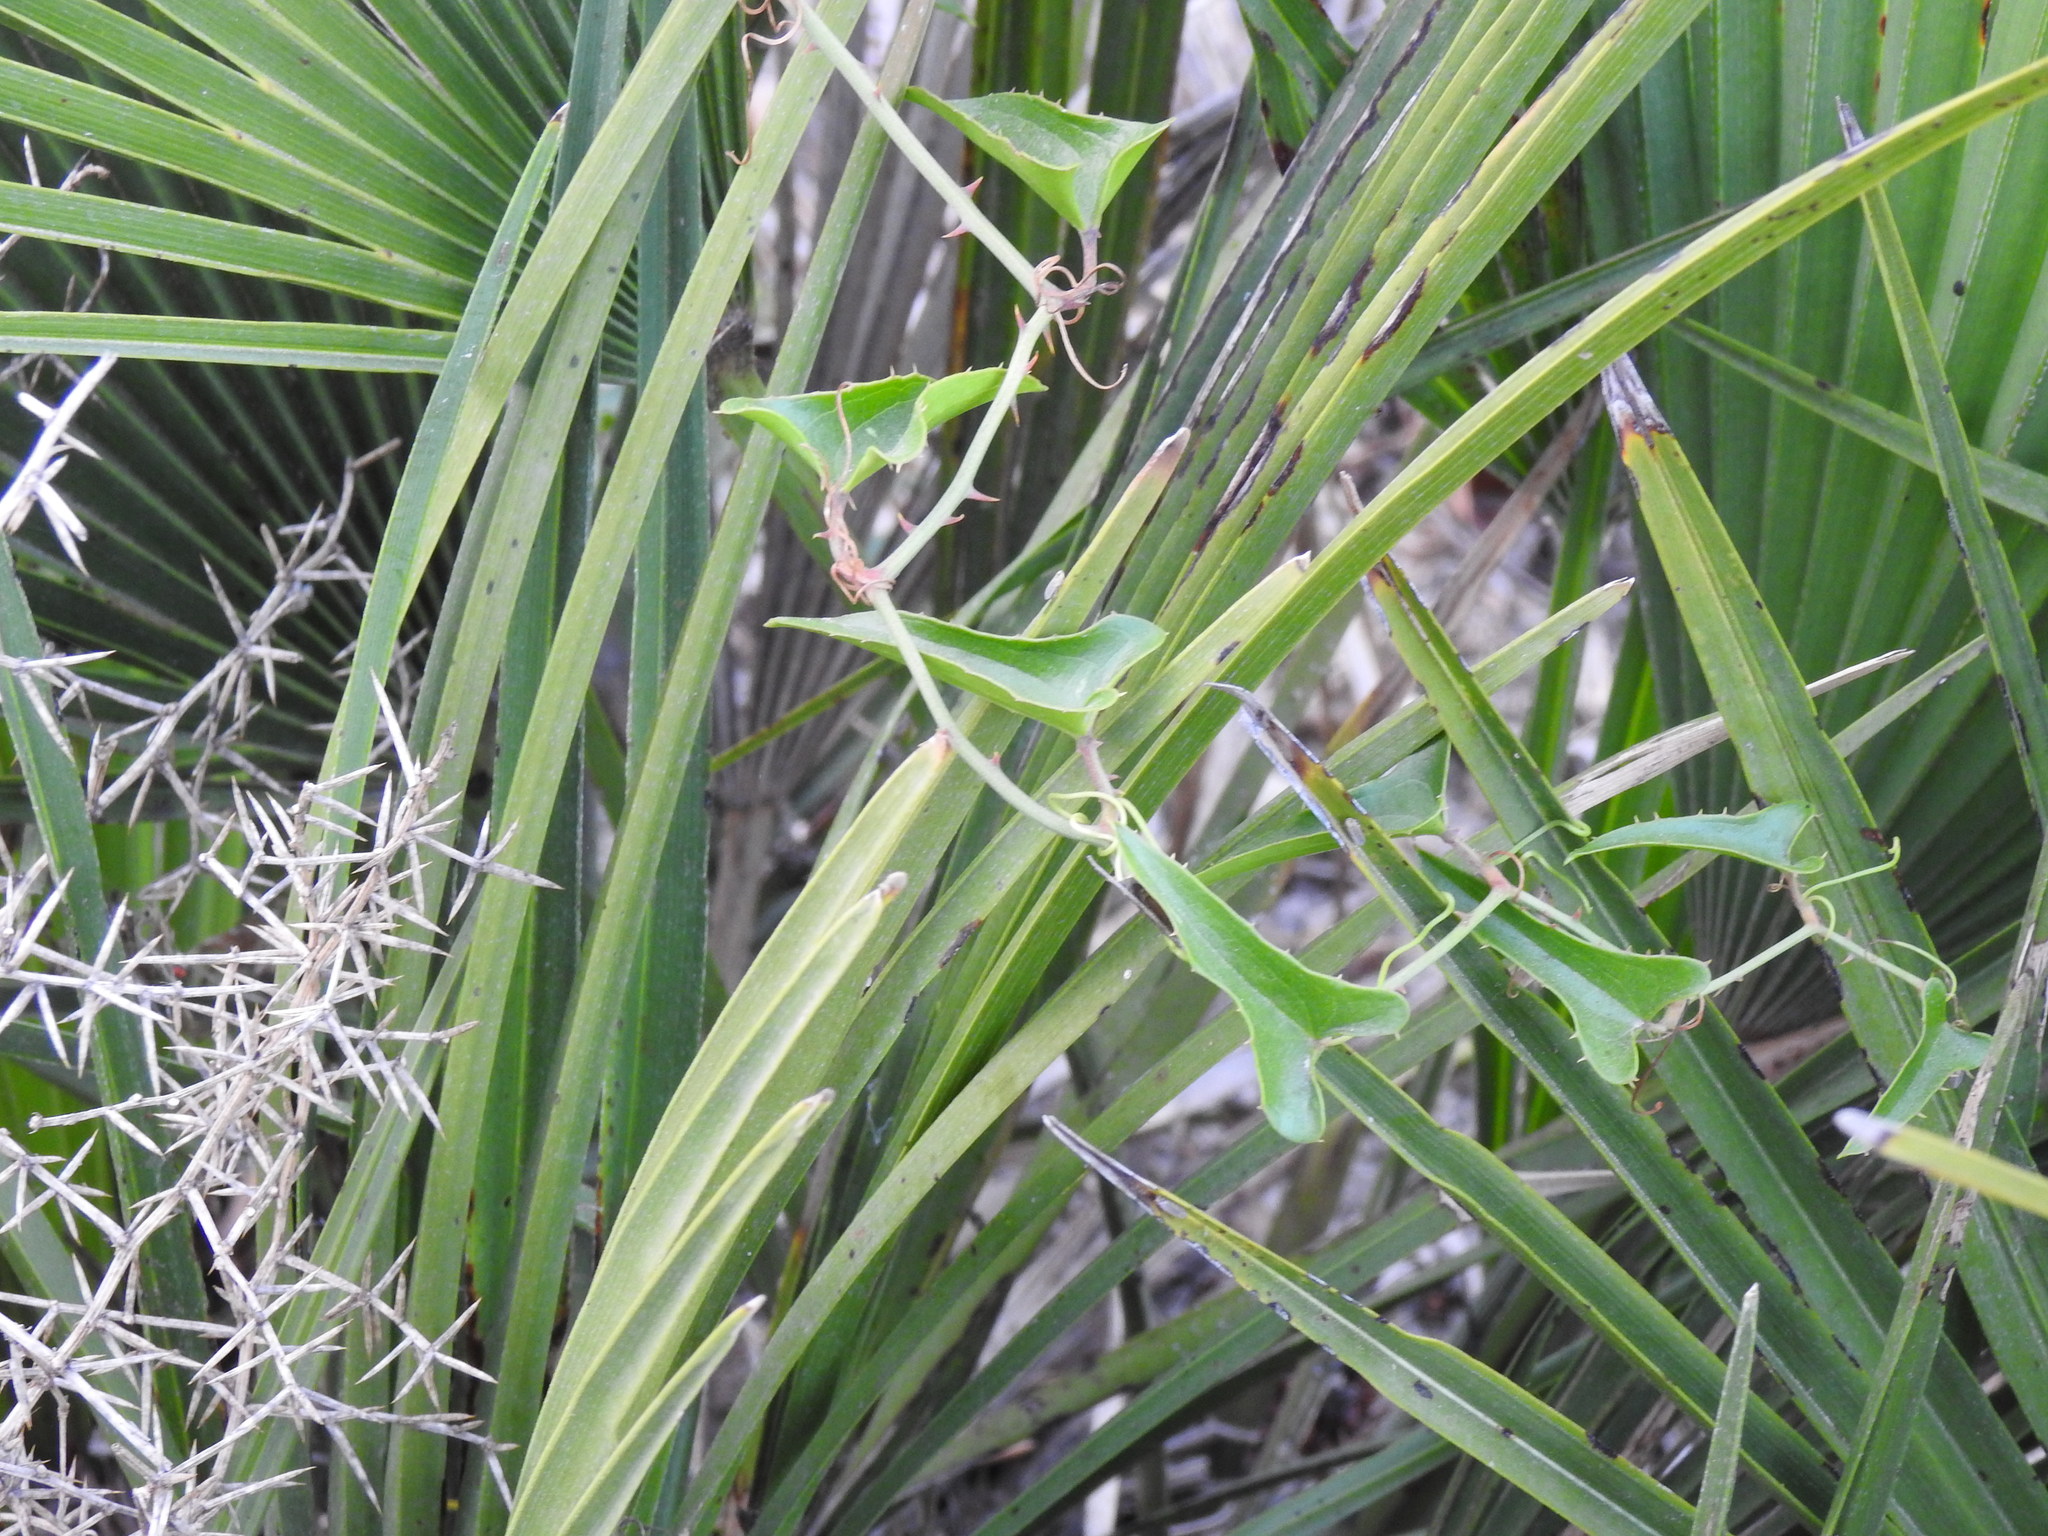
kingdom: Plantae
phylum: Tracheophyta
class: Liliopsida
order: Liliales
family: Smilacaceae
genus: Smilax
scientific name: Smilax aspera
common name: Common smilax
